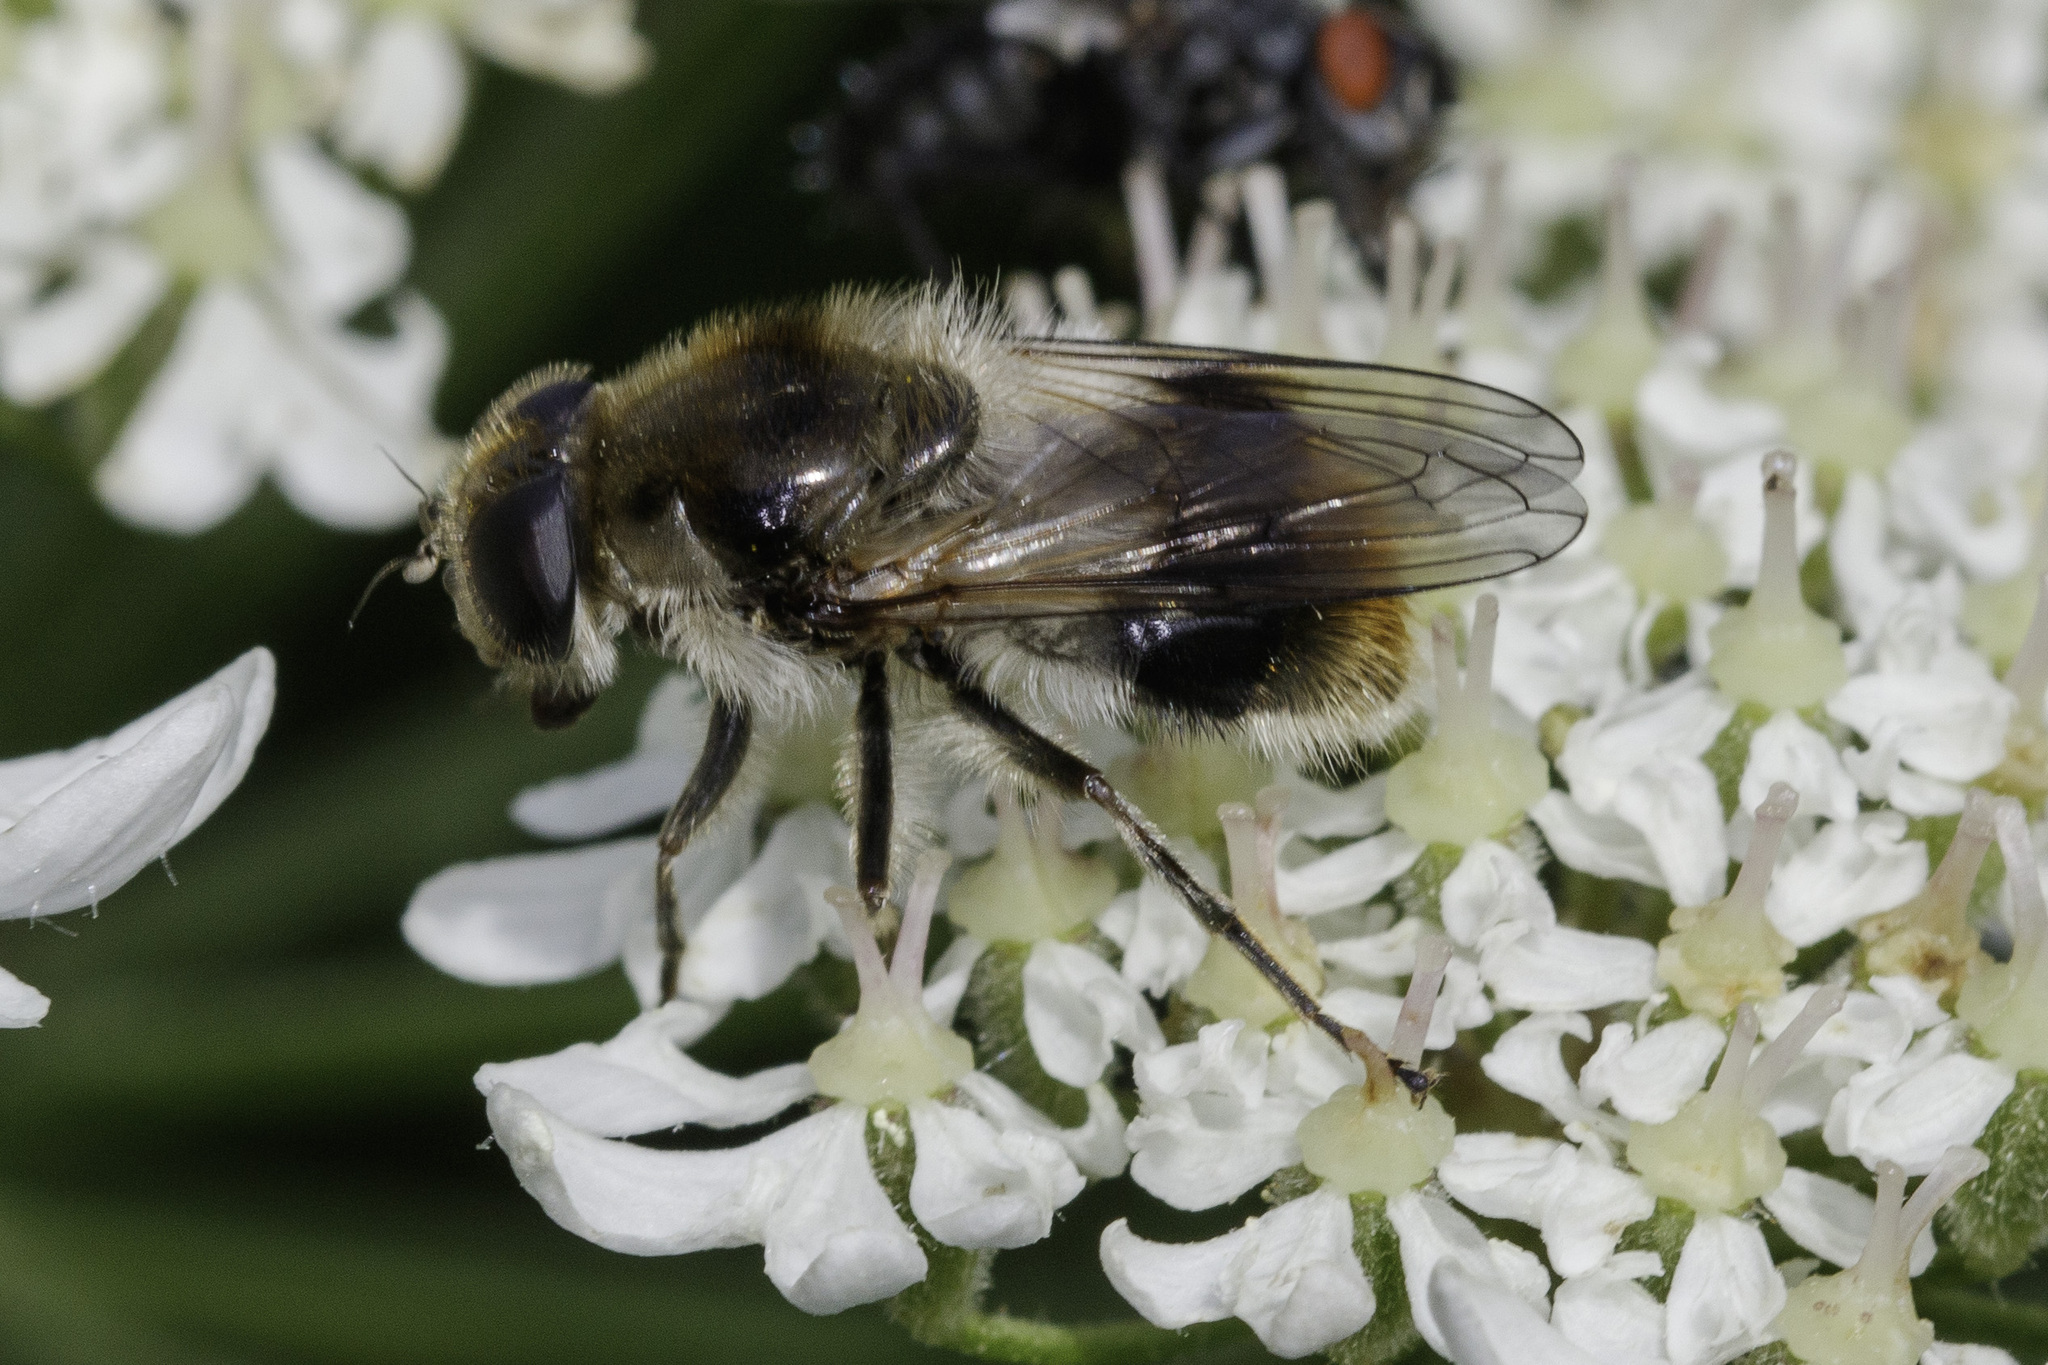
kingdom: Animalia
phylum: Arthropoda
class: Insecta
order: Diptera
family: Syrphidae
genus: Cheilosia
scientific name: Cheilosia illustrata
